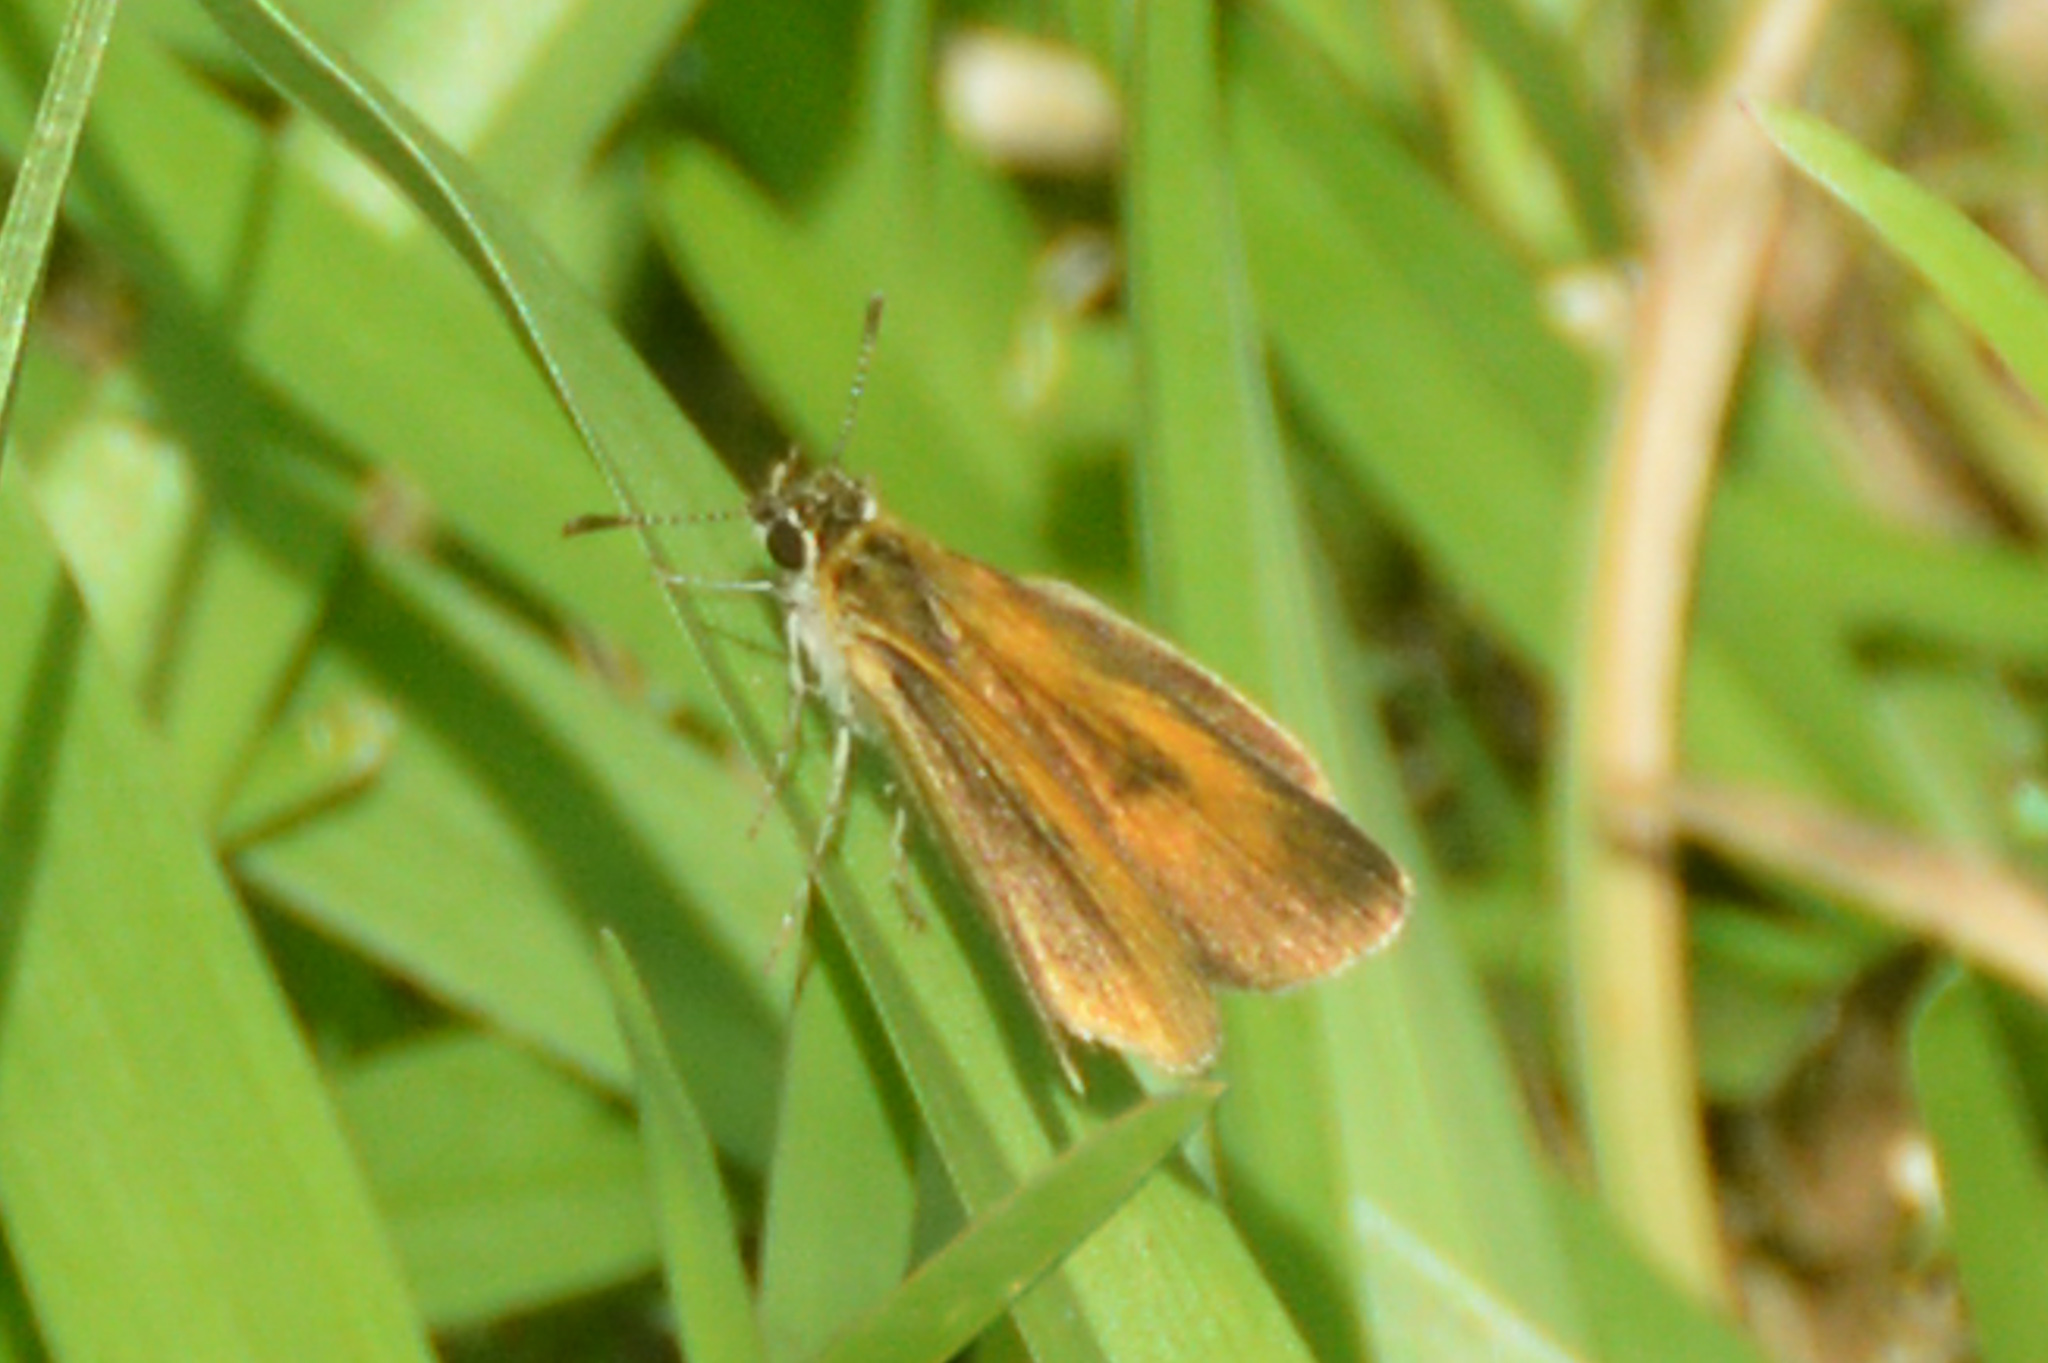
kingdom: Animalia
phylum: Arthropoda
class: Insecta
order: Lepidoptera
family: Hesperiidae
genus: Ancyloxypha
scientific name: Ancyloxypha numitor
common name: Least skipper
